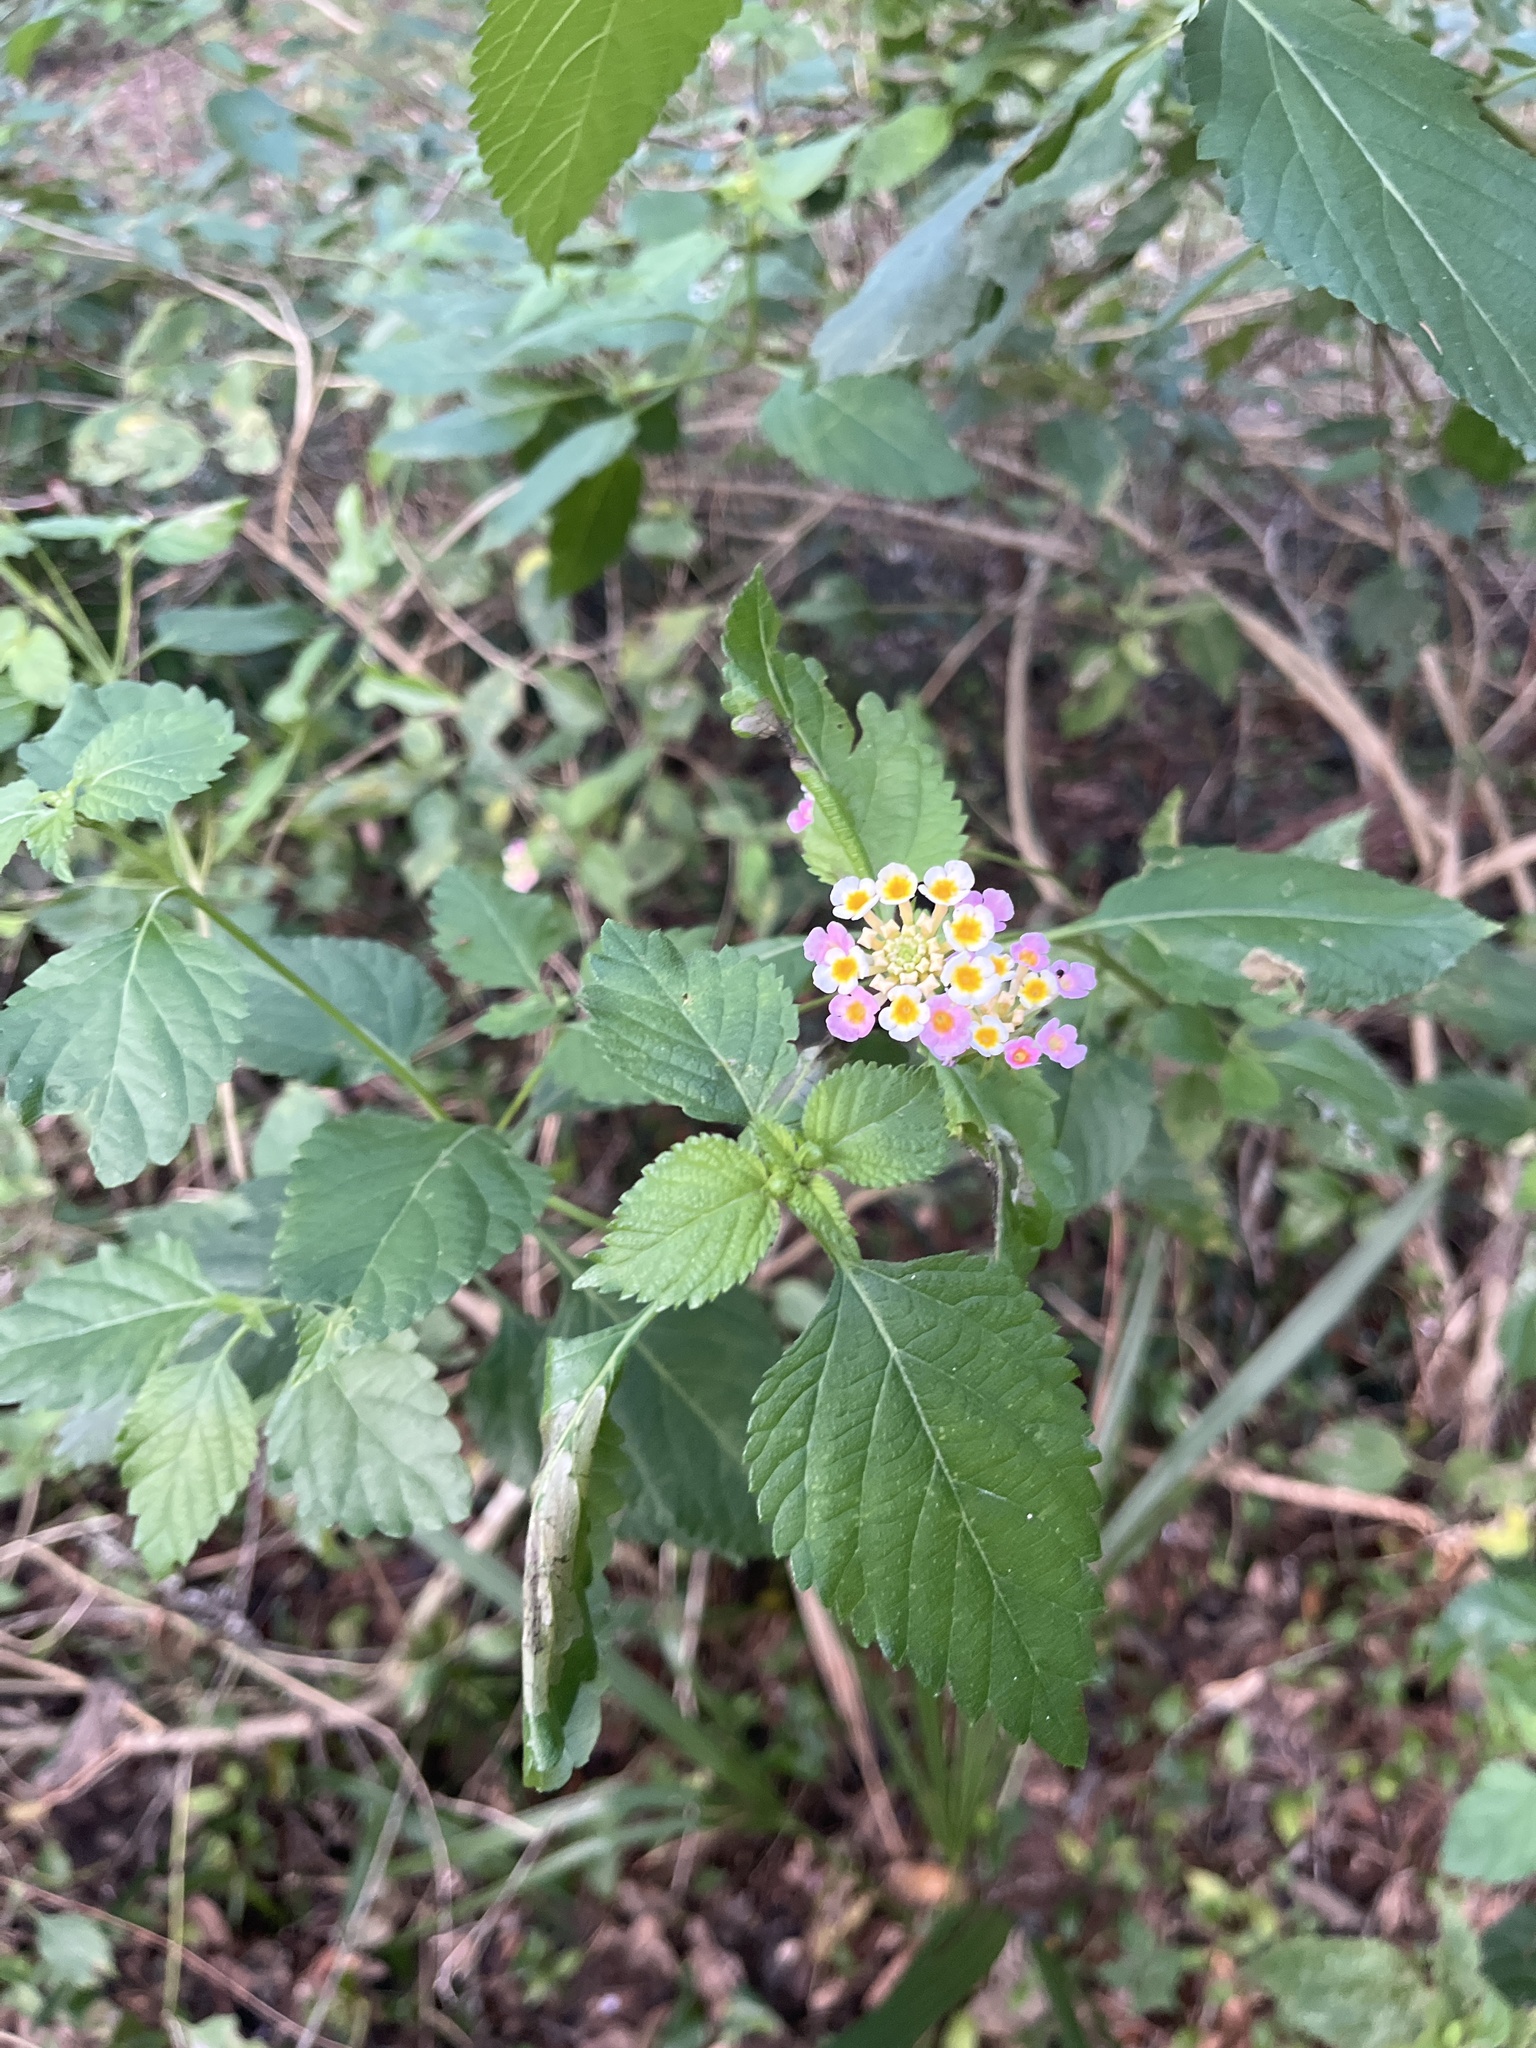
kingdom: Plantae
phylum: Tracheophyta
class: Magnoliopsida
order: Lamiales
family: Verbenaceae
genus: Lantana
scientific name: Lantana strigocamara
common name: Lantana
